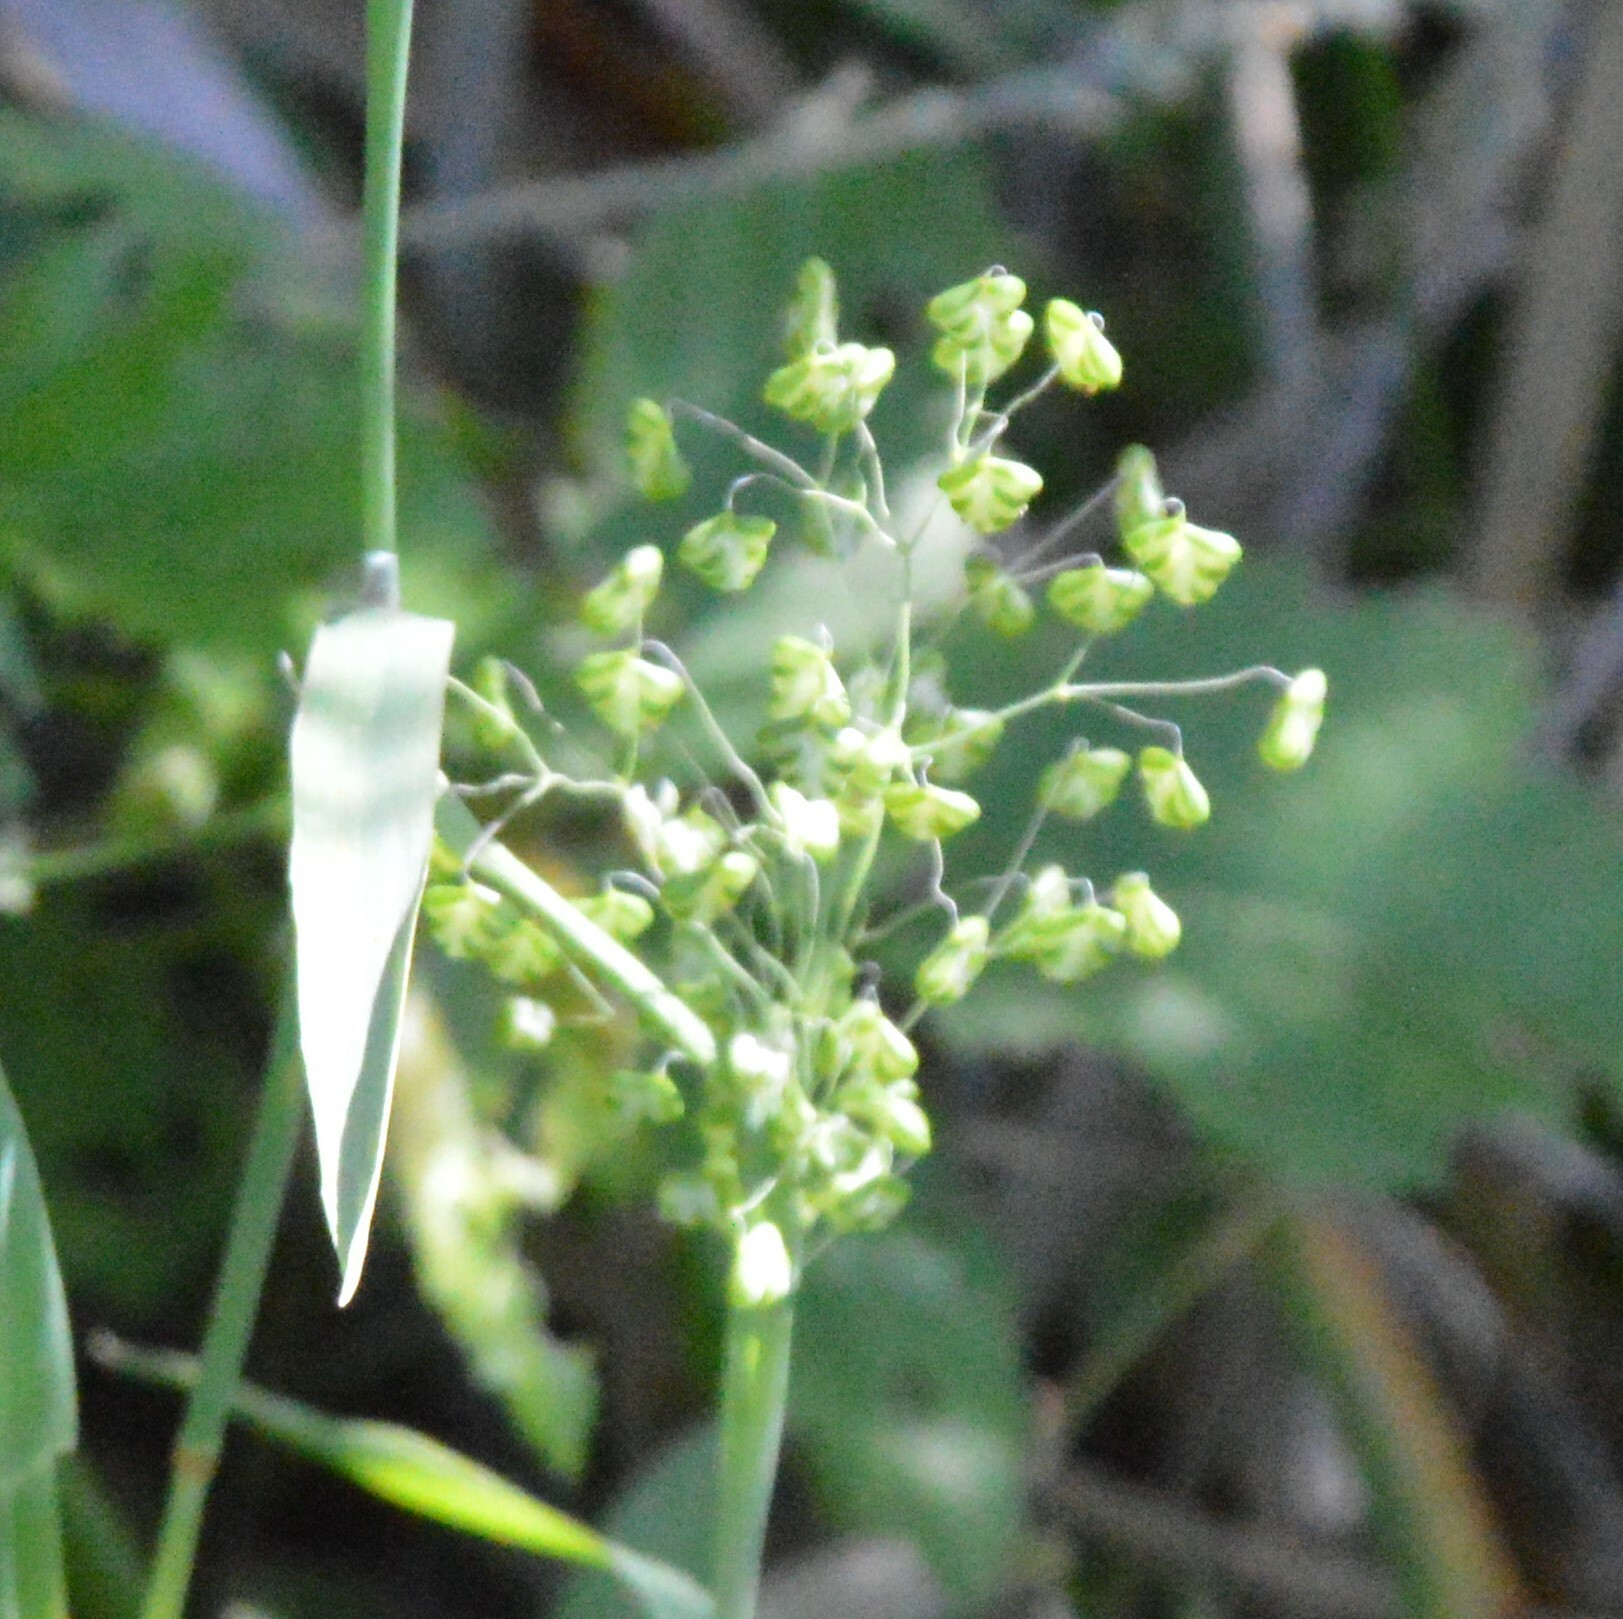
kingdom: Plantae
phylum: Tracheophyta
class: Liliopsida
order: Poales
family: Poaceae
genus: Briza
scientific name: Briza minor
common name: Lesser quaking-grass
